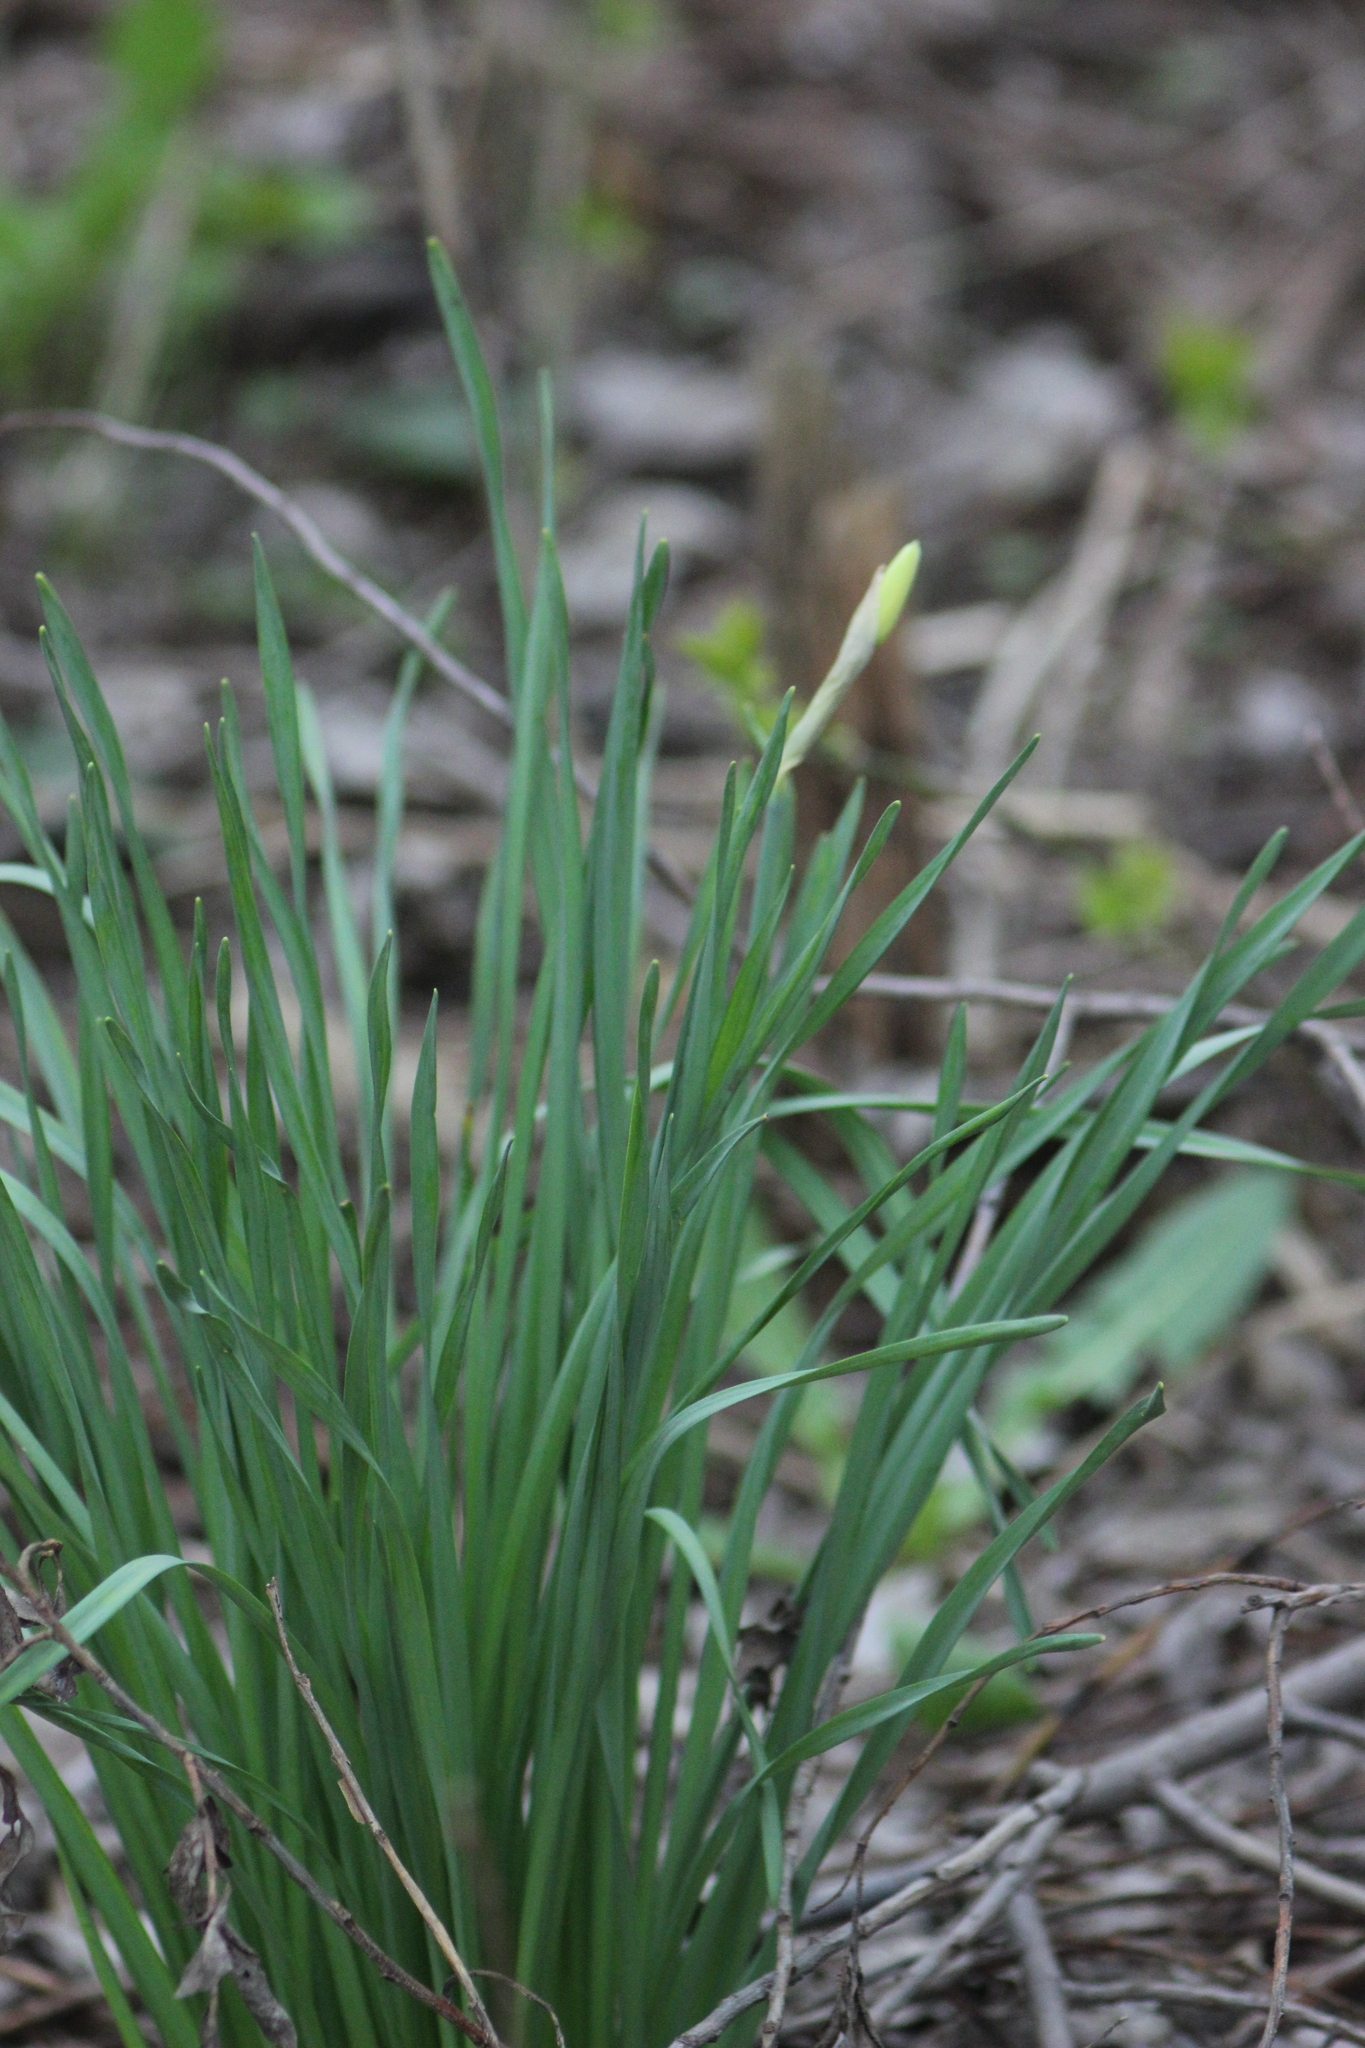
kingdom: Plantae
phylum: Tracheophyta
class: Liliopsida
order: Asparagales
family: Amaryllidaceae
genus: Narcissus
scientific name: Narcissus poeticus
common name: Pheasant's-eye daffodil
